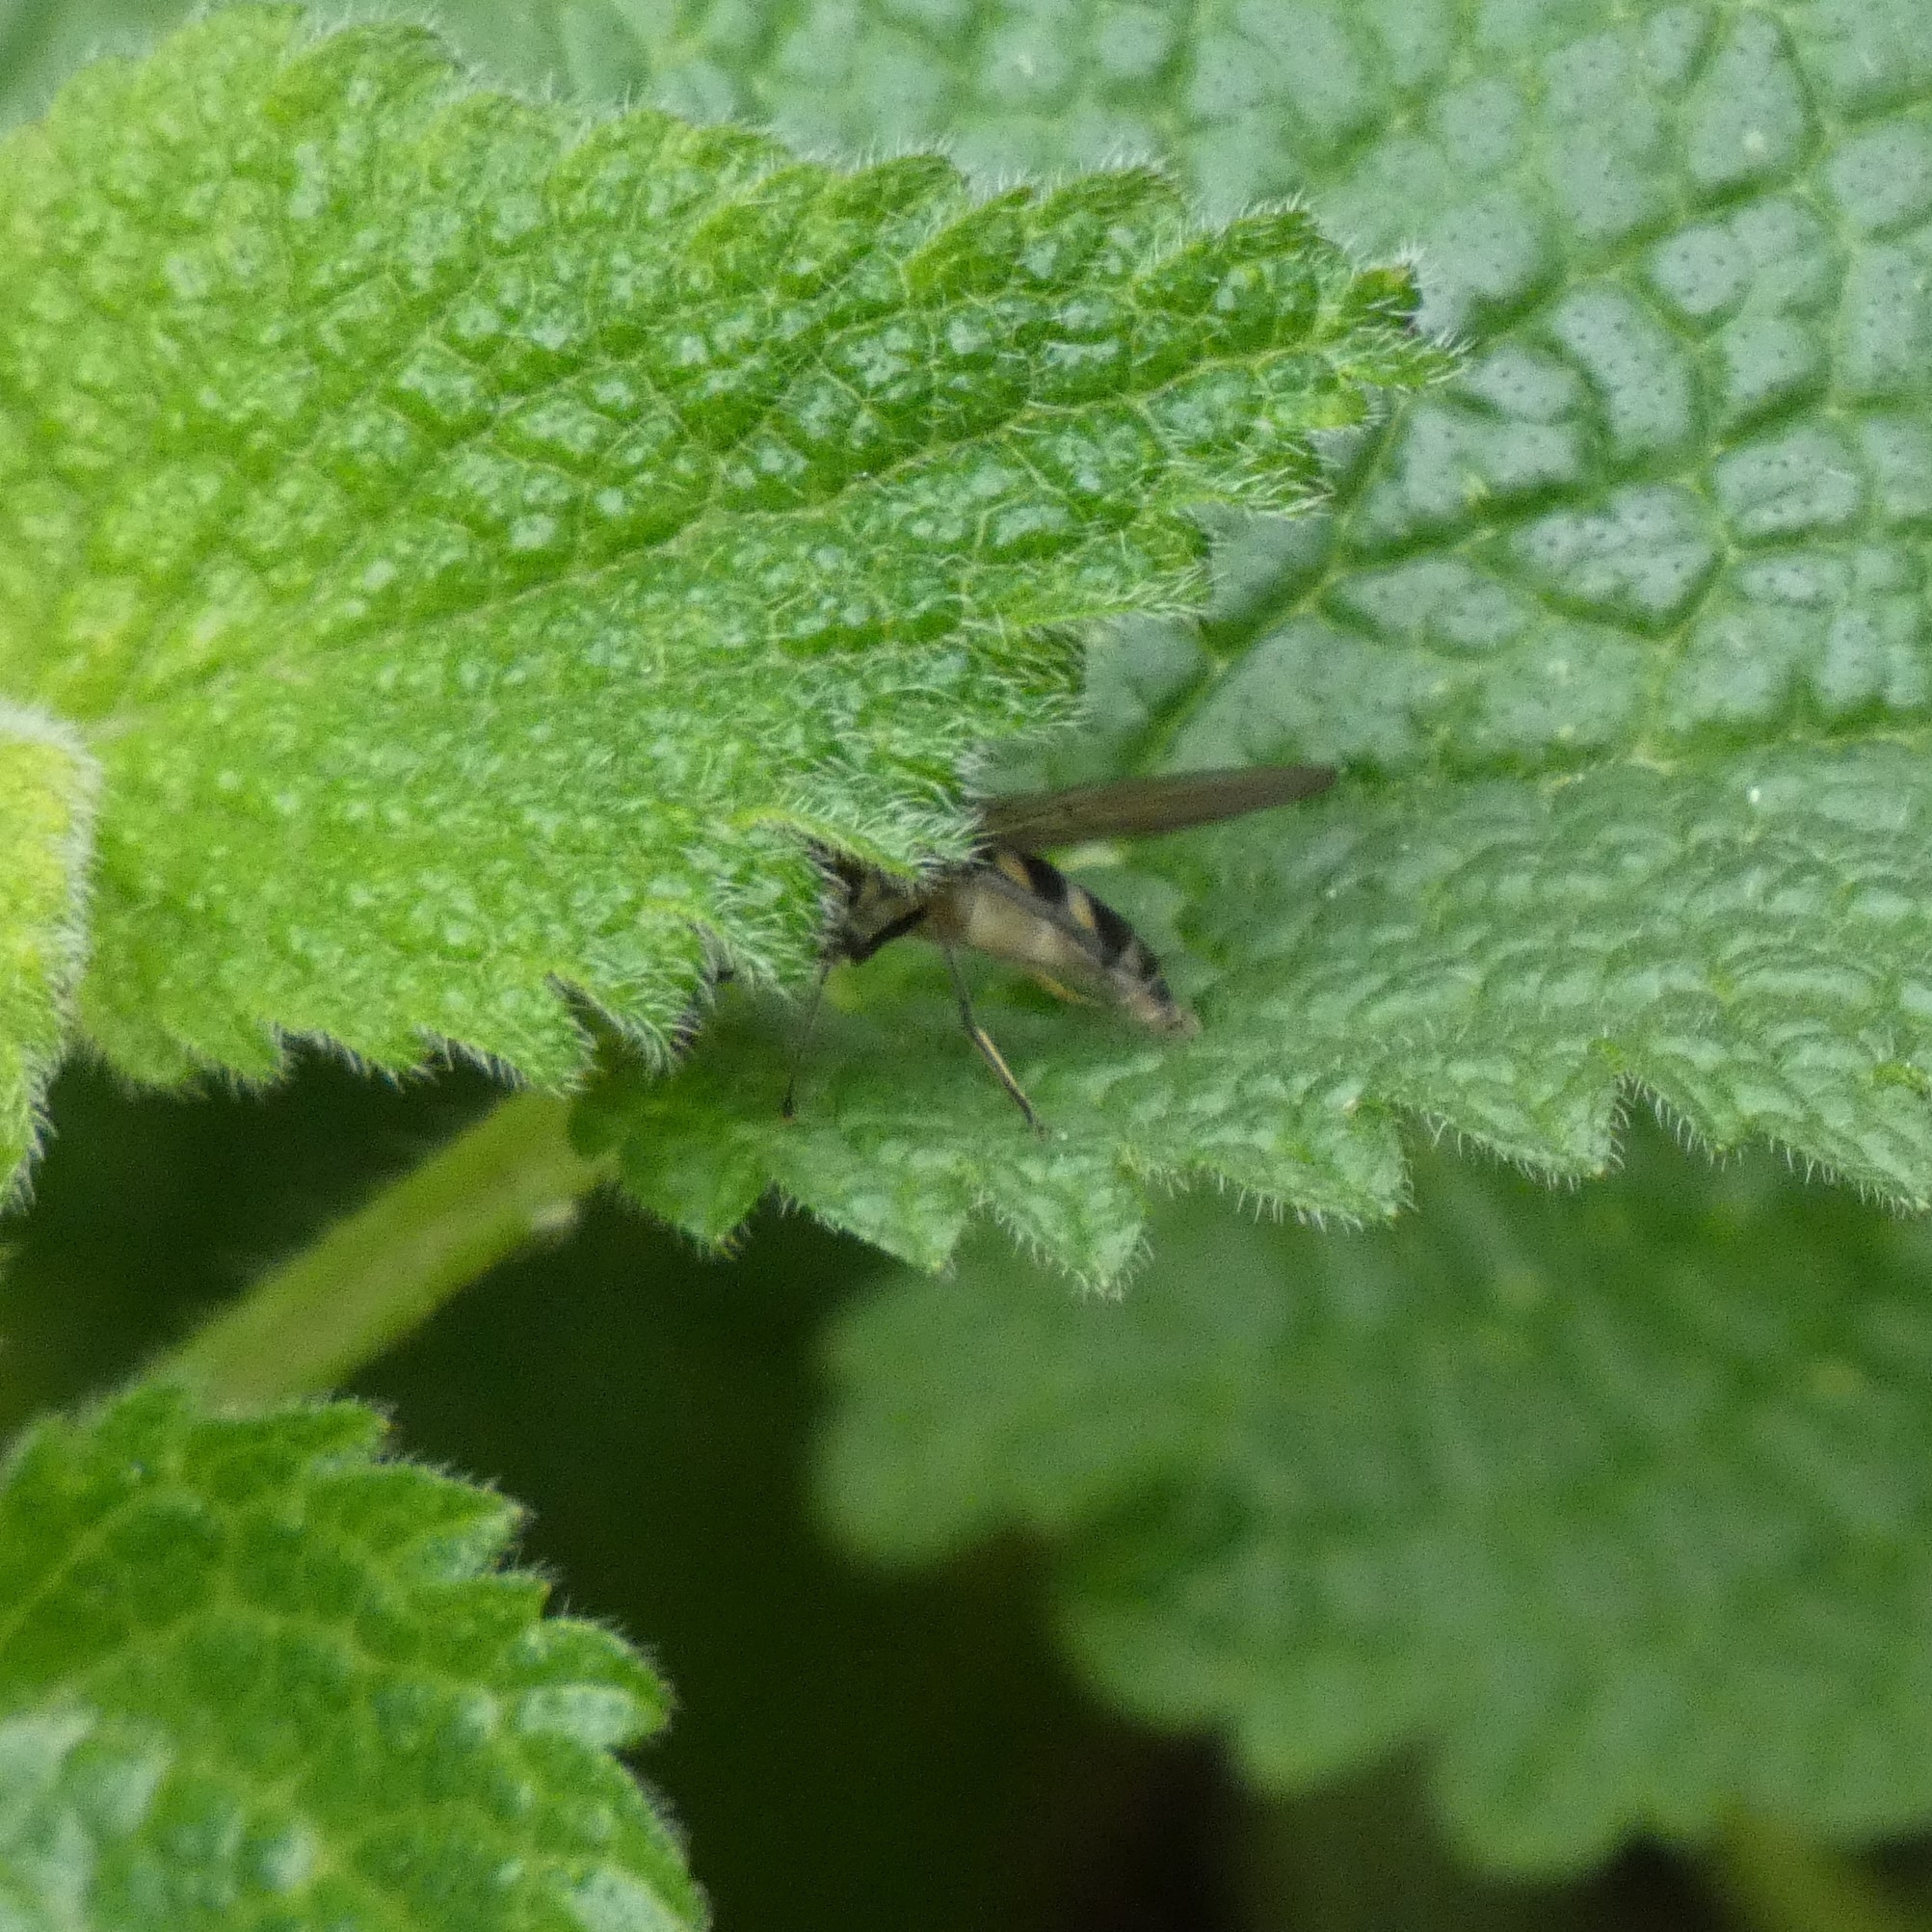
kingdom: Animalia
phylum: Arthropoda
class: Insecta
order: Diptera
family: Syrphidae
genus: Meliscaeva
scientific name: Meliscaeva auricollis
